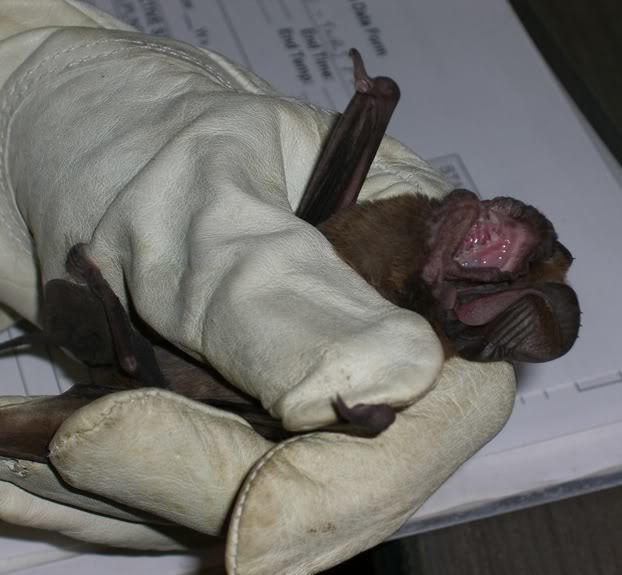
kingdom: Animalia
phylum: Chordata
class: Mammalia
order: Chiroptera
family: Molossidae
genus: Nyctinomops
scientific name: Nyctinomops macrotis
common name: Big free-tailed bat
